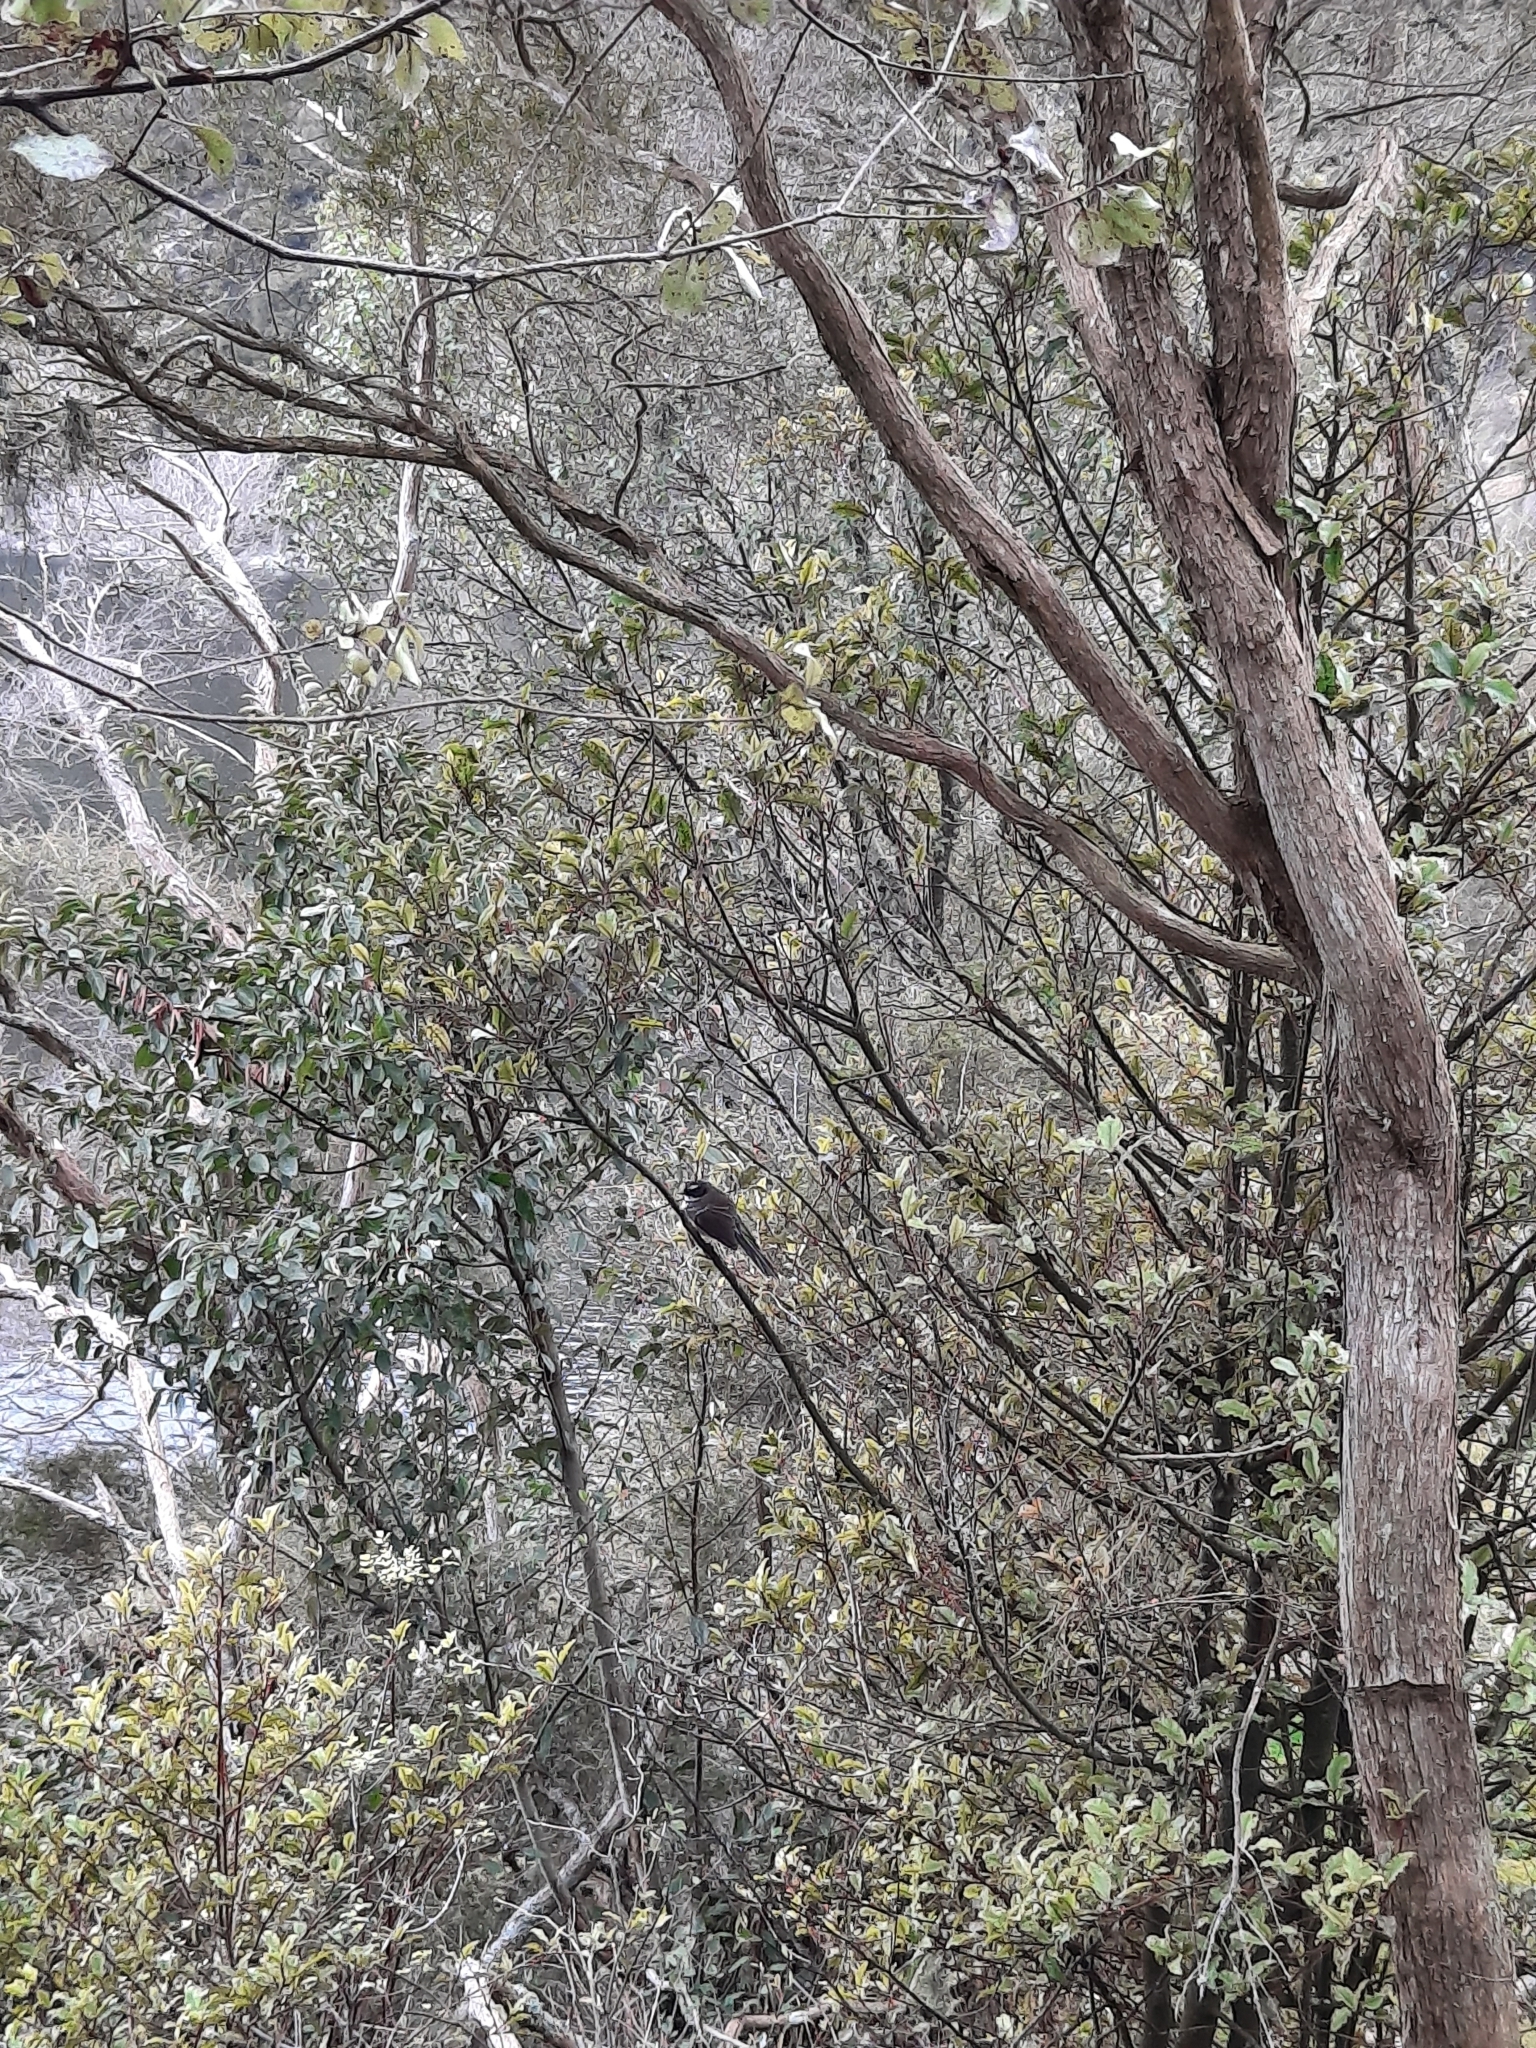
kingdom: Animalia
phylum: Chordata
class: Aves
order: Passeriformes
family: Rhipiduridae
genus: Rhipidura
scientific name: Rhipidura fuliginosa
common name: New zealand fantail
